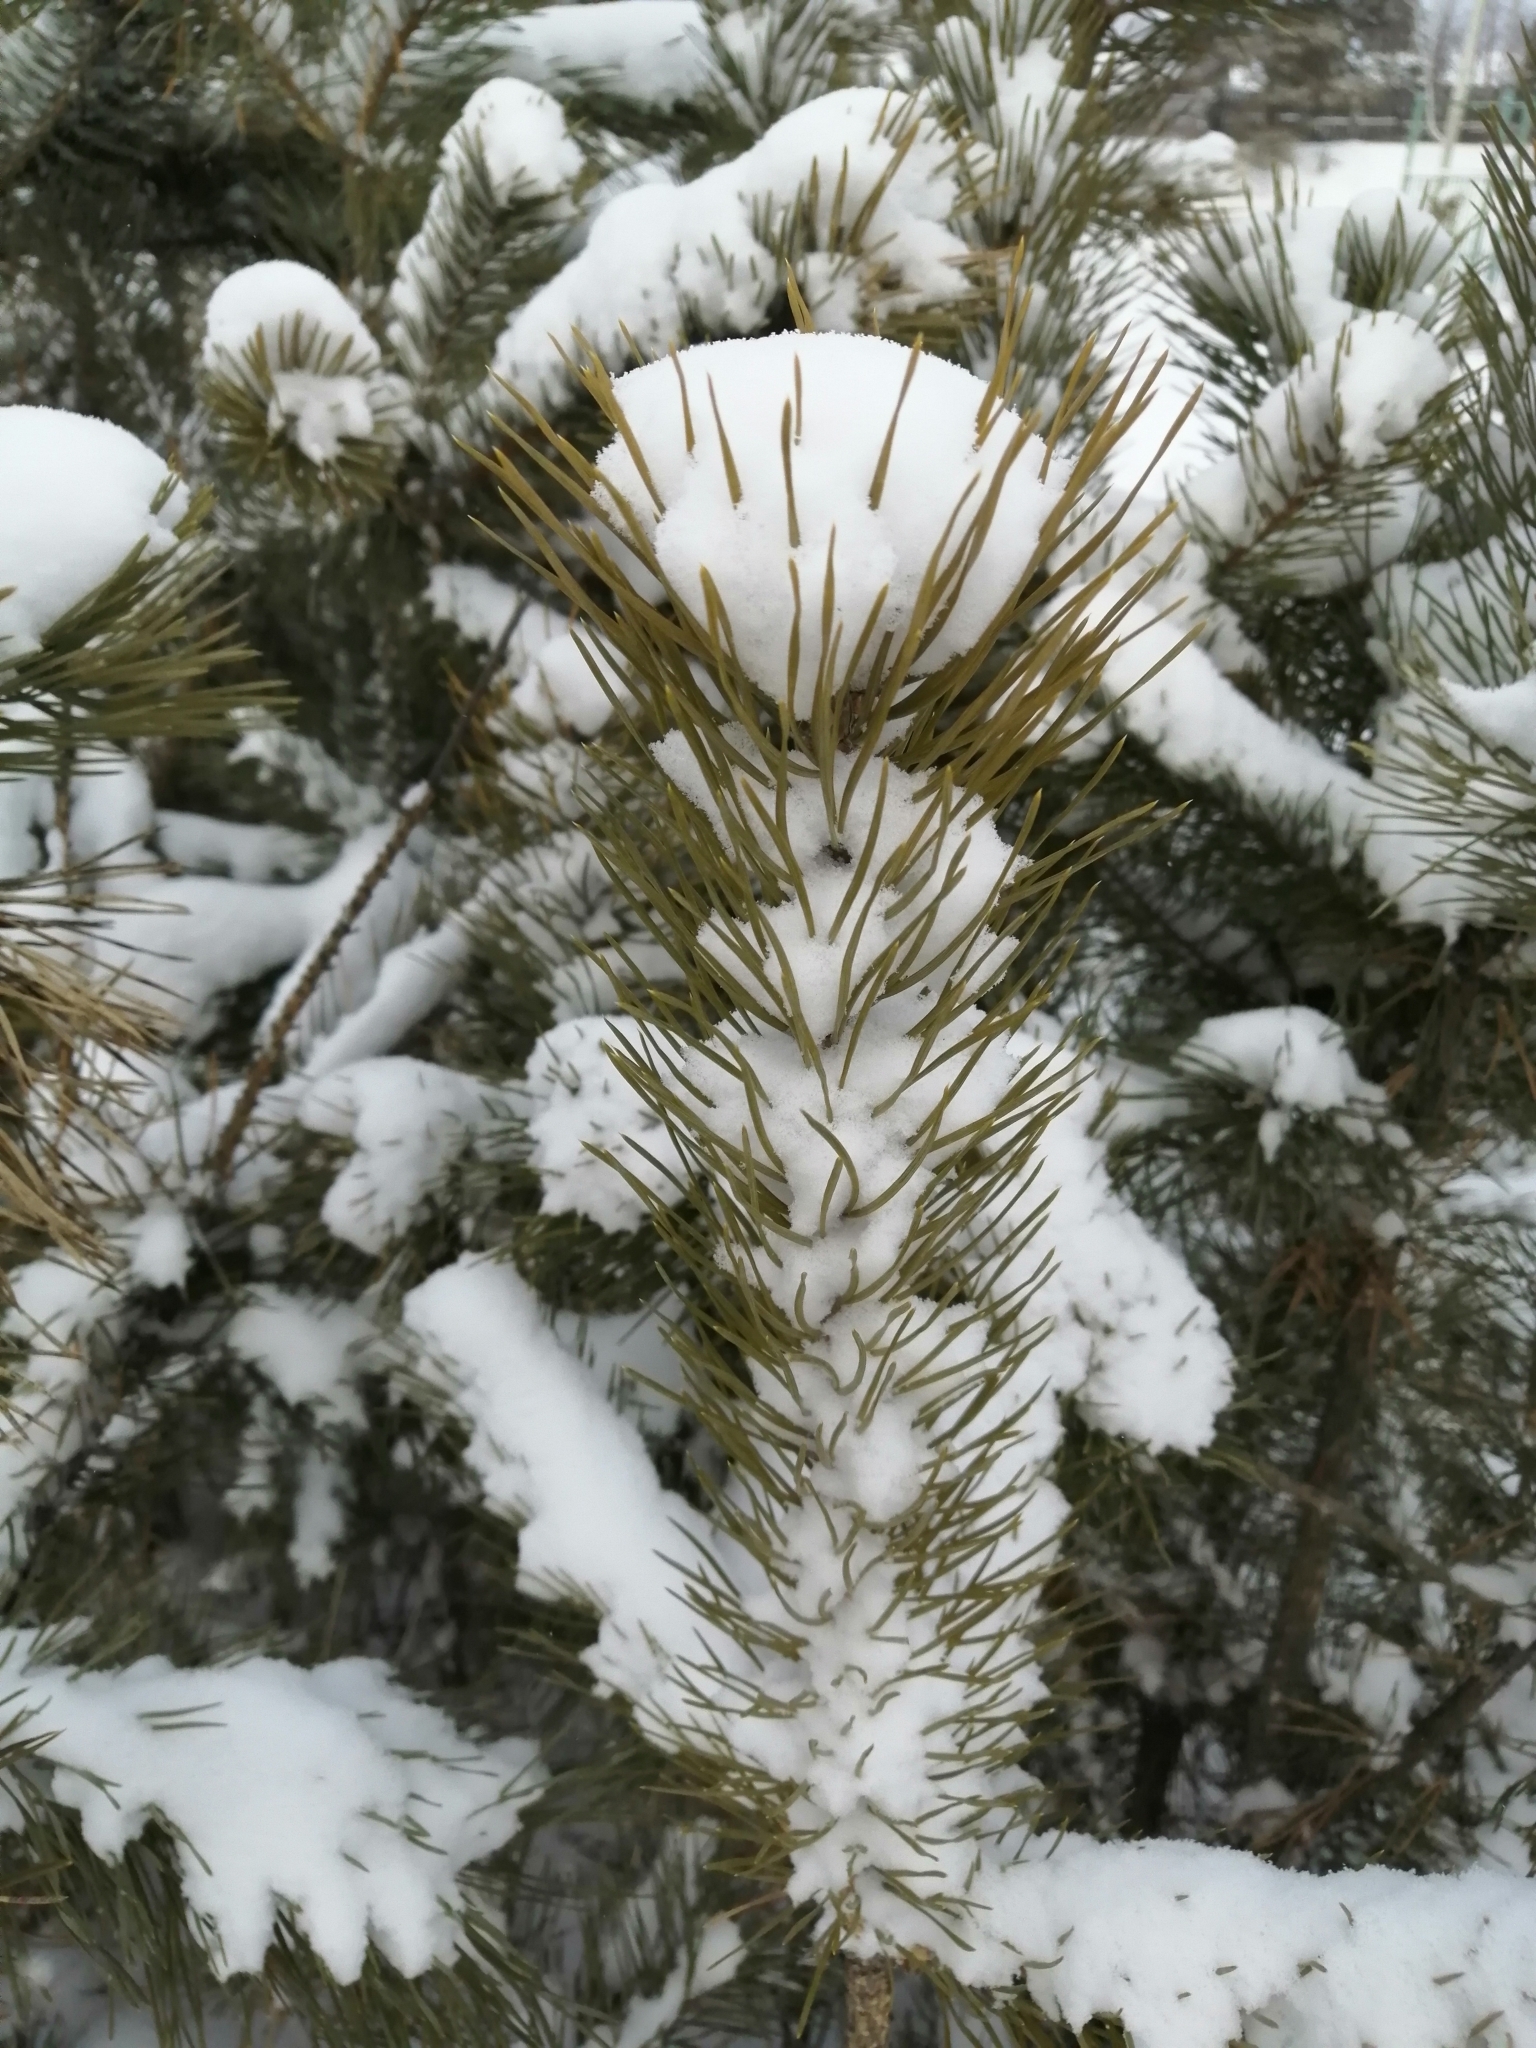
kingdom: Plantae
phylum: Tracheophyta
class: Pinopsida
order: Pinales
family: Pinaceae
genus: Pinus
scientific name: Pinus sylvestris
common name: Scots pine
